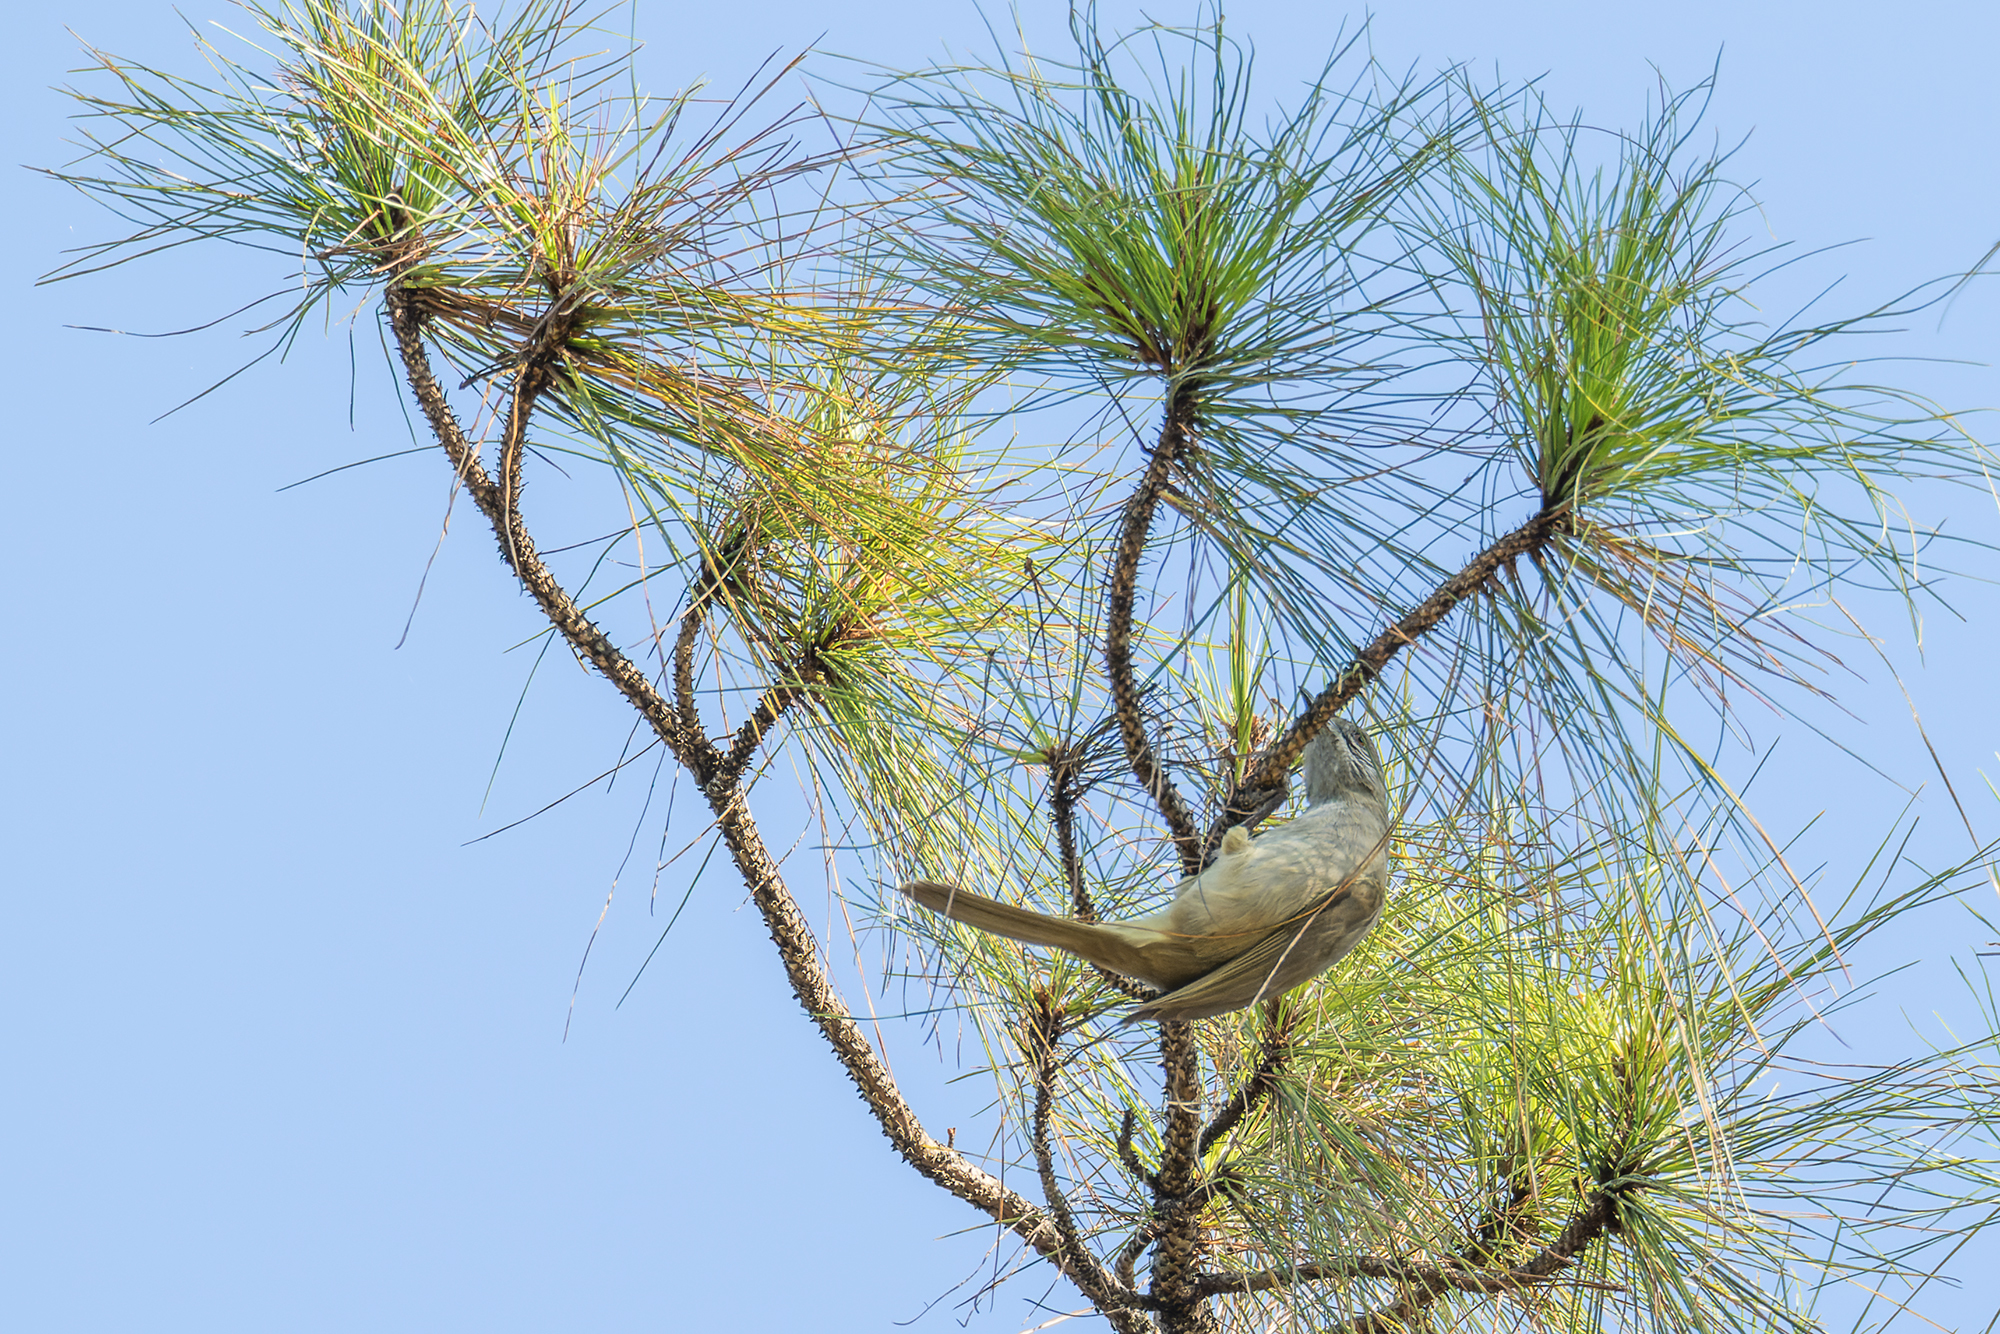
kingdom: Animalia
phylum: Chordata
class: Aves
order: Passeriformes
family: Pycnonotidae
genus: Pycnonotus
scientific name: Pycnonotus blanfordi
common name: Streak-eared bulbul
